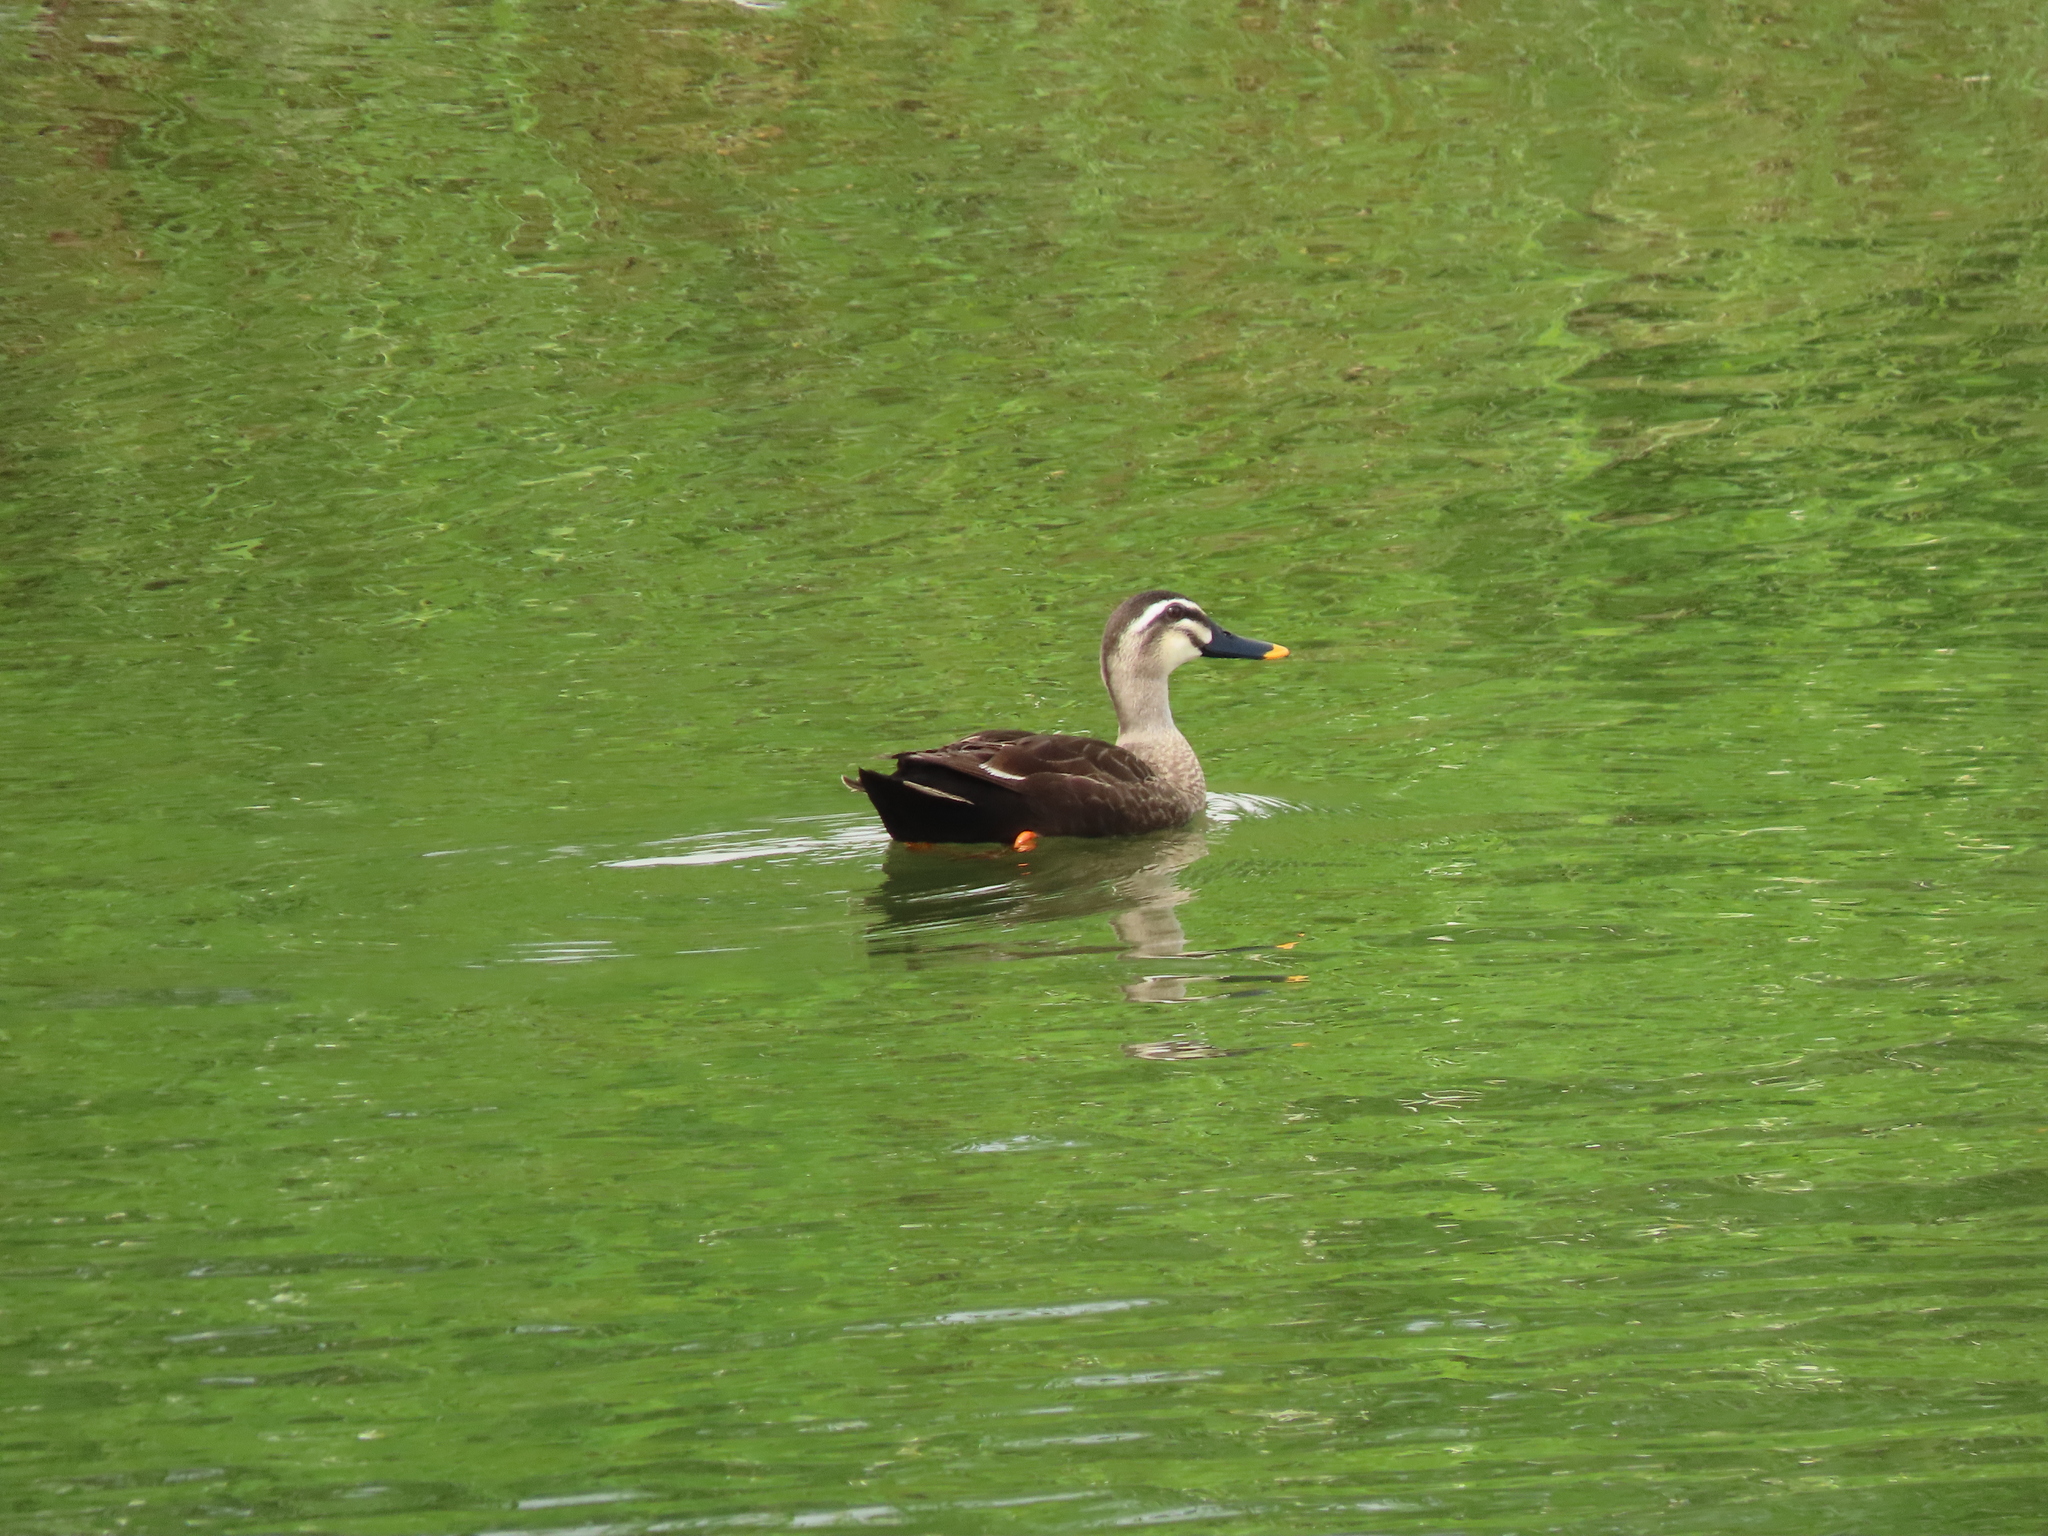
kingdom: Animalia
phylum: Chordata
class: Aves
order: Anseriformes
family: Anatidae
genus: Anas
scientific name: Anas zonorhyncha
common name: Eastern spot-billed duck
